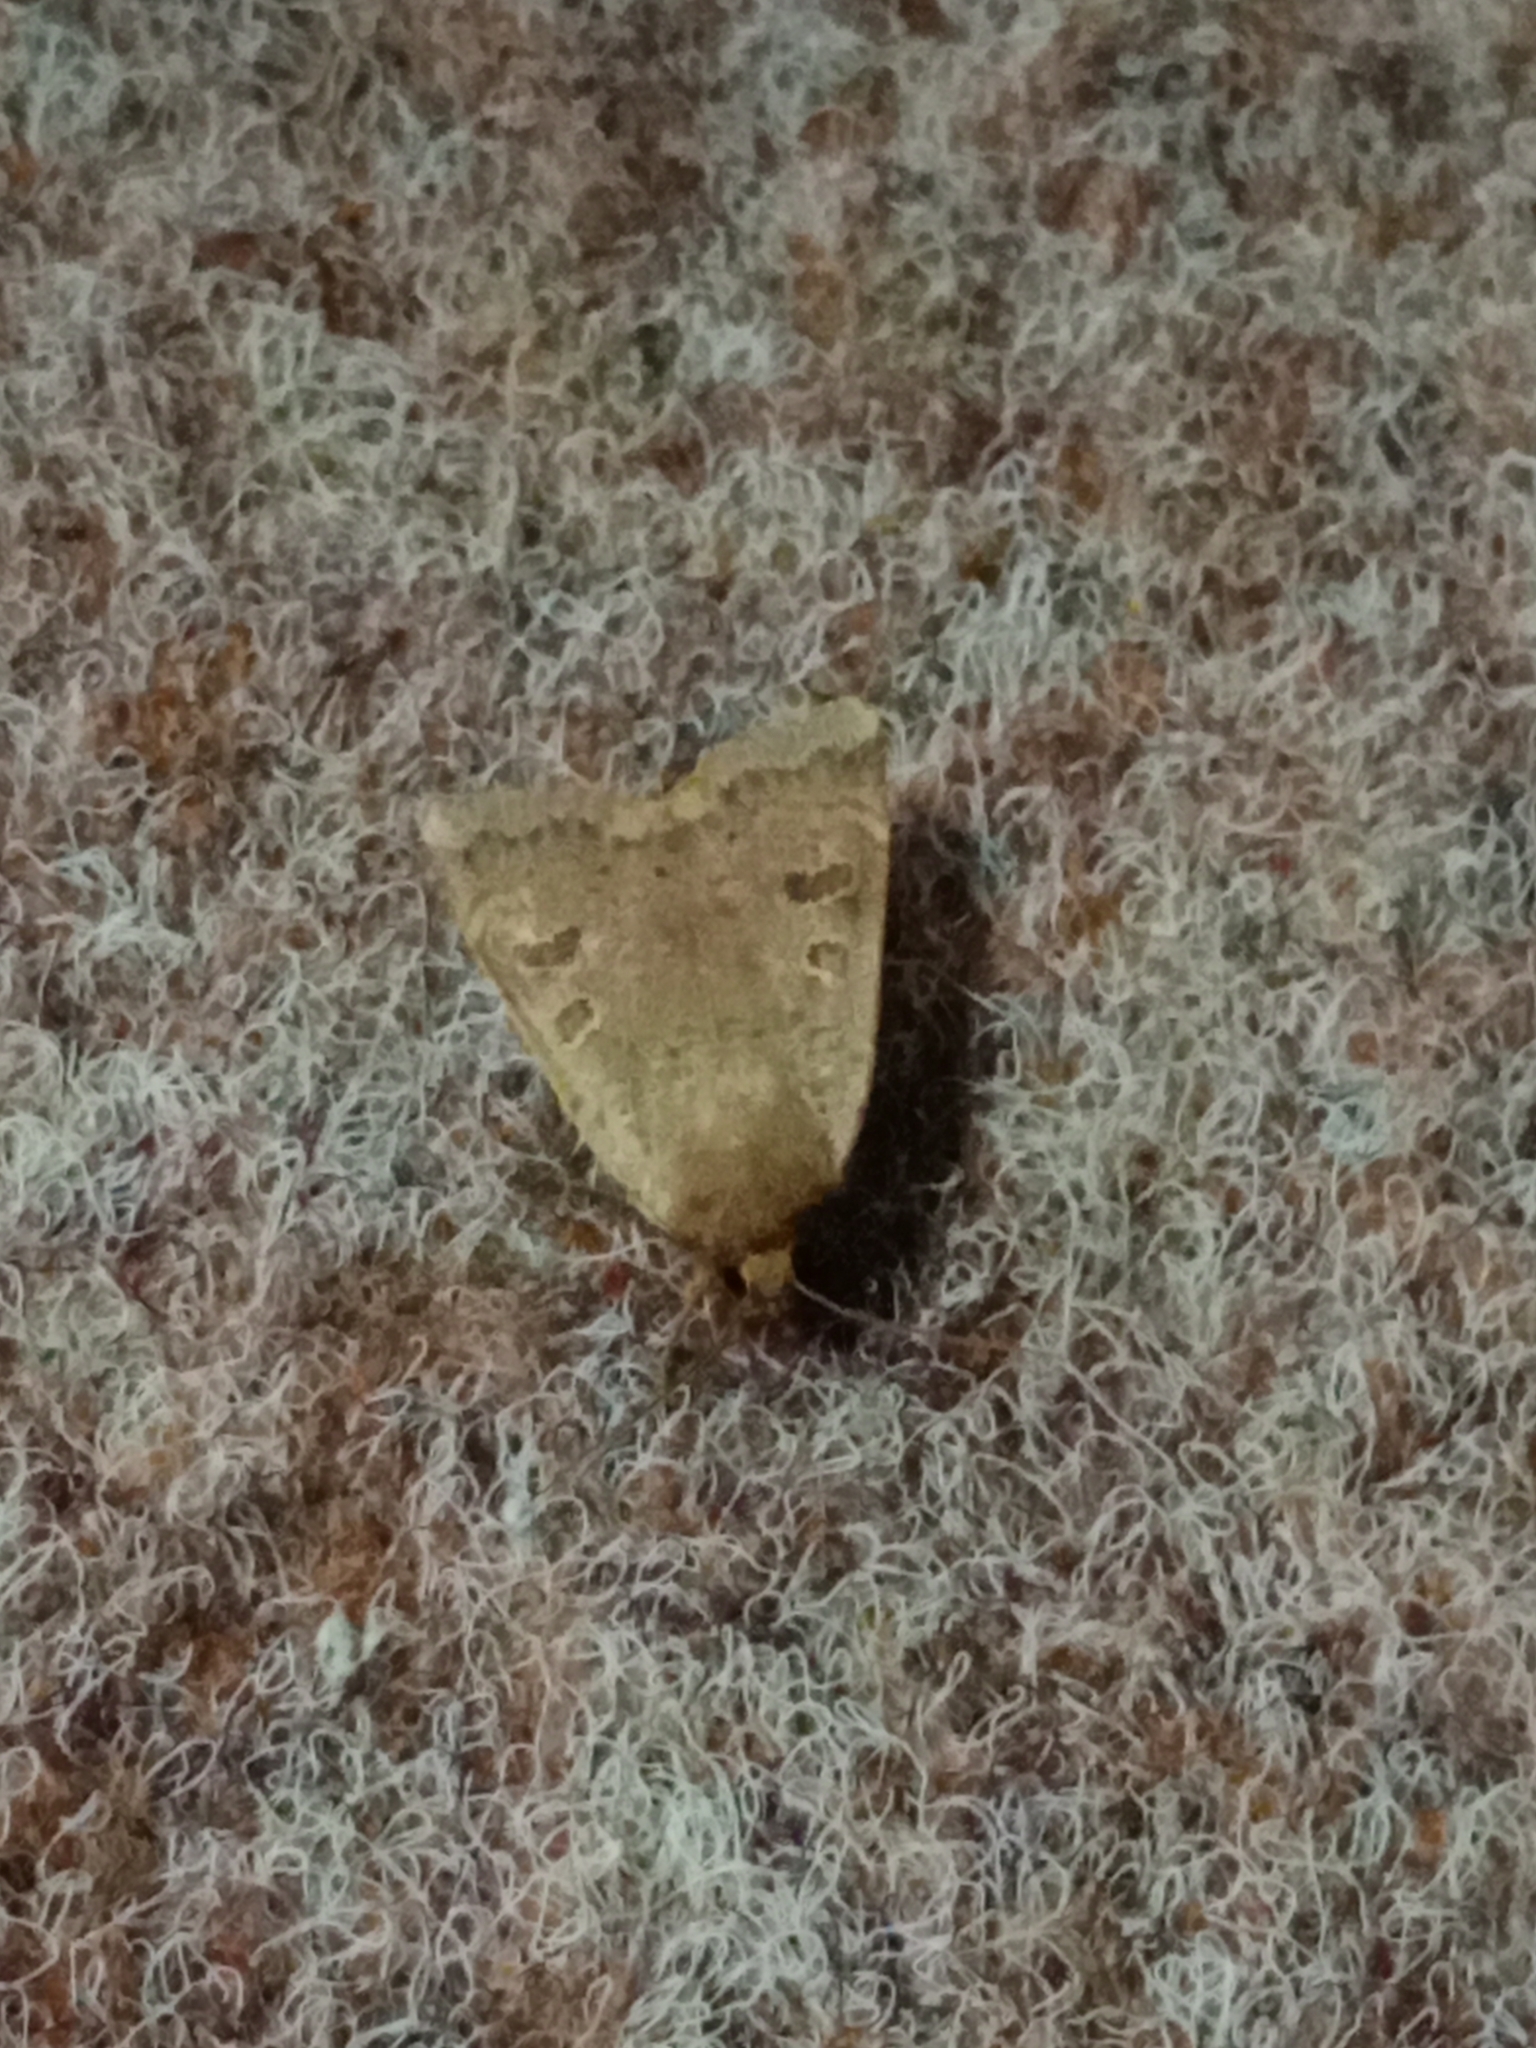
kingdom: Animalia
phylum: Arthropoda
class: Insecta
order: Lepidoptera
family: Noctuidae
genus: Noctua
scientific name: Noctua comes
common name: Lesser yellow underwing
